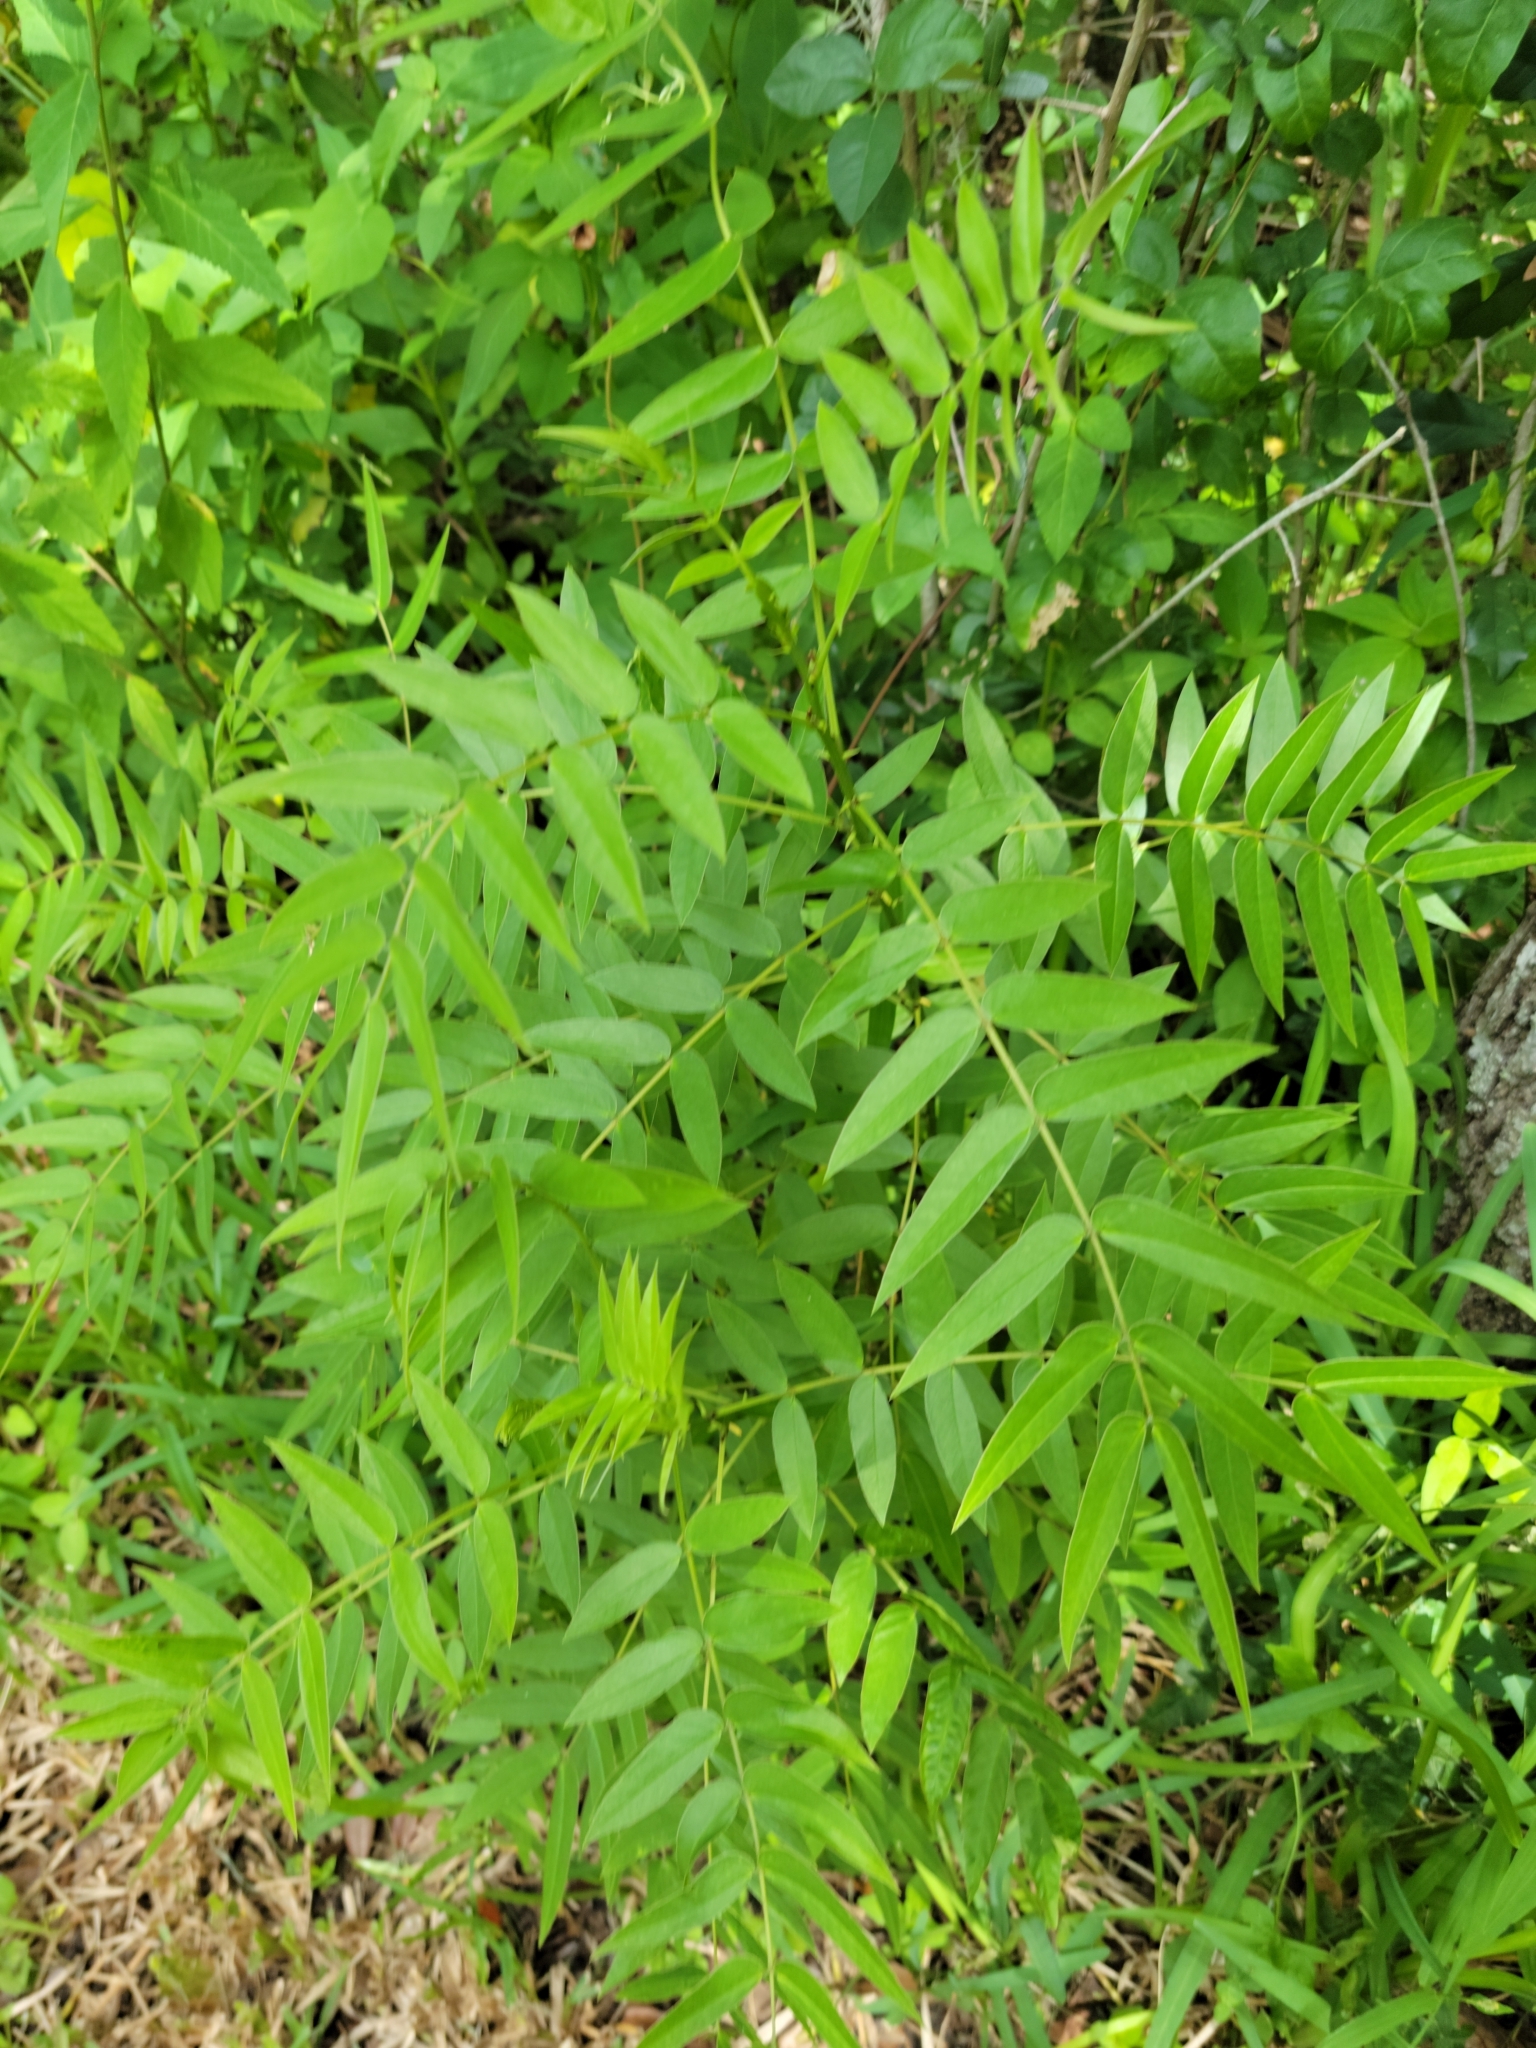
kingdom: Plantae
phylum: Tracheophyta
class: Magnoliopsida
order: Fabales
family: Fabaceae
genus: Senna
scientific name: Senna ligustrina
